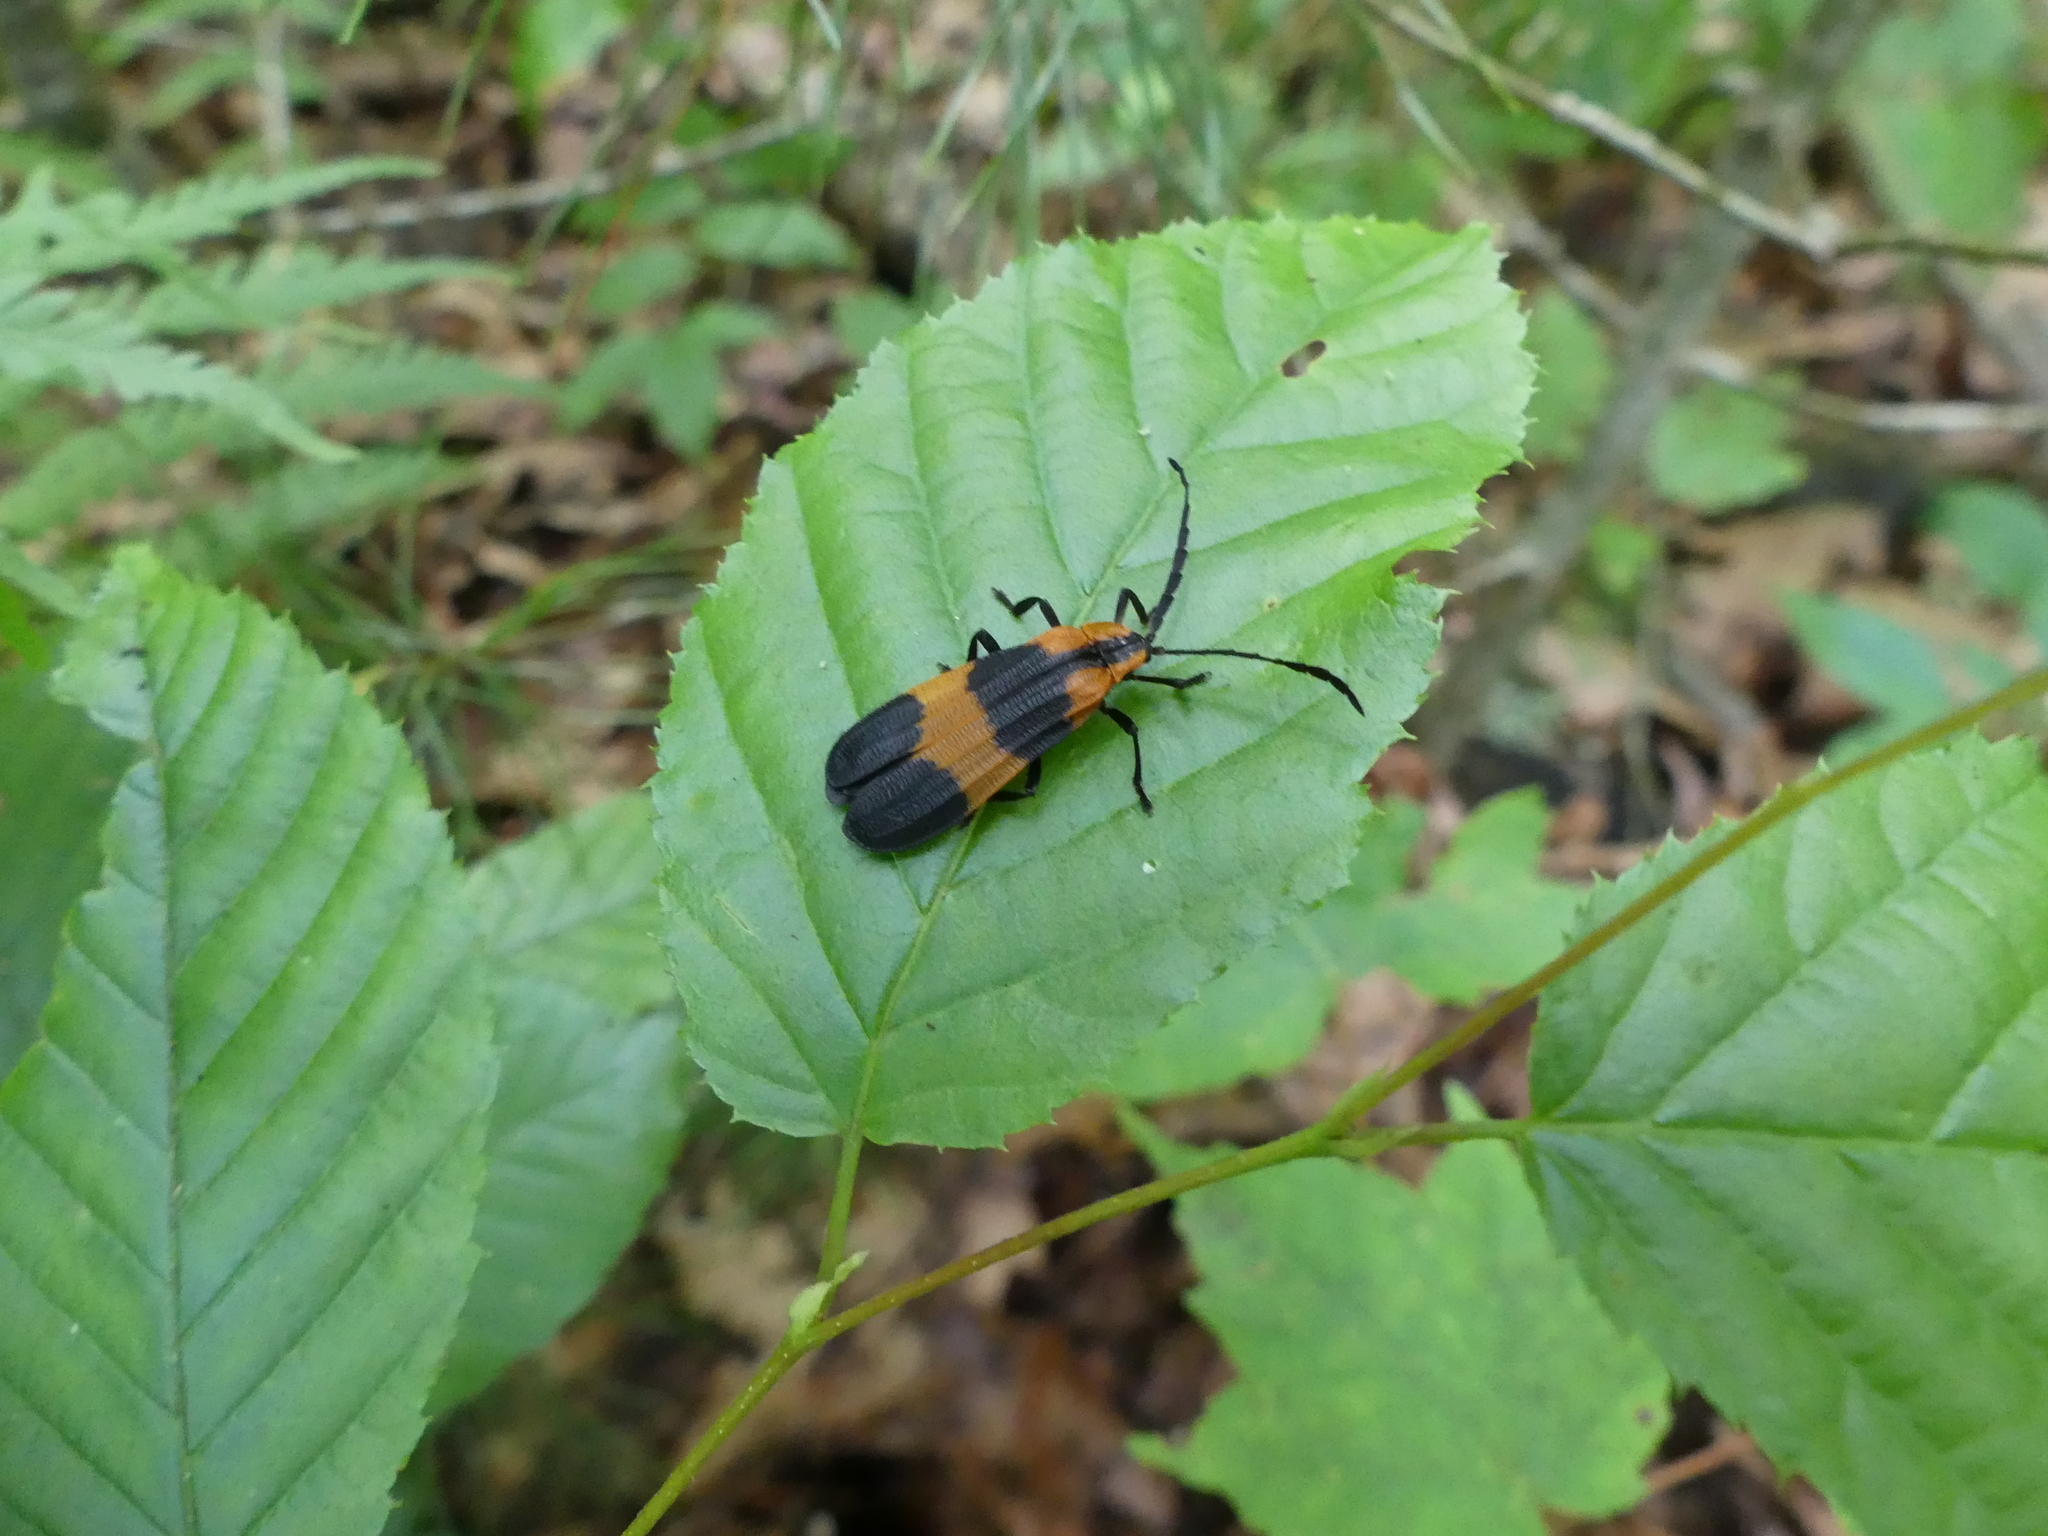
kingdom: Animalia
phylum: Arthropoda
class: Insecta
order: Coleoptera
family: Lycidae
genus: Calopteron
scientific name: Calopteron reticulatum
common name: Banded net-winged beetle
